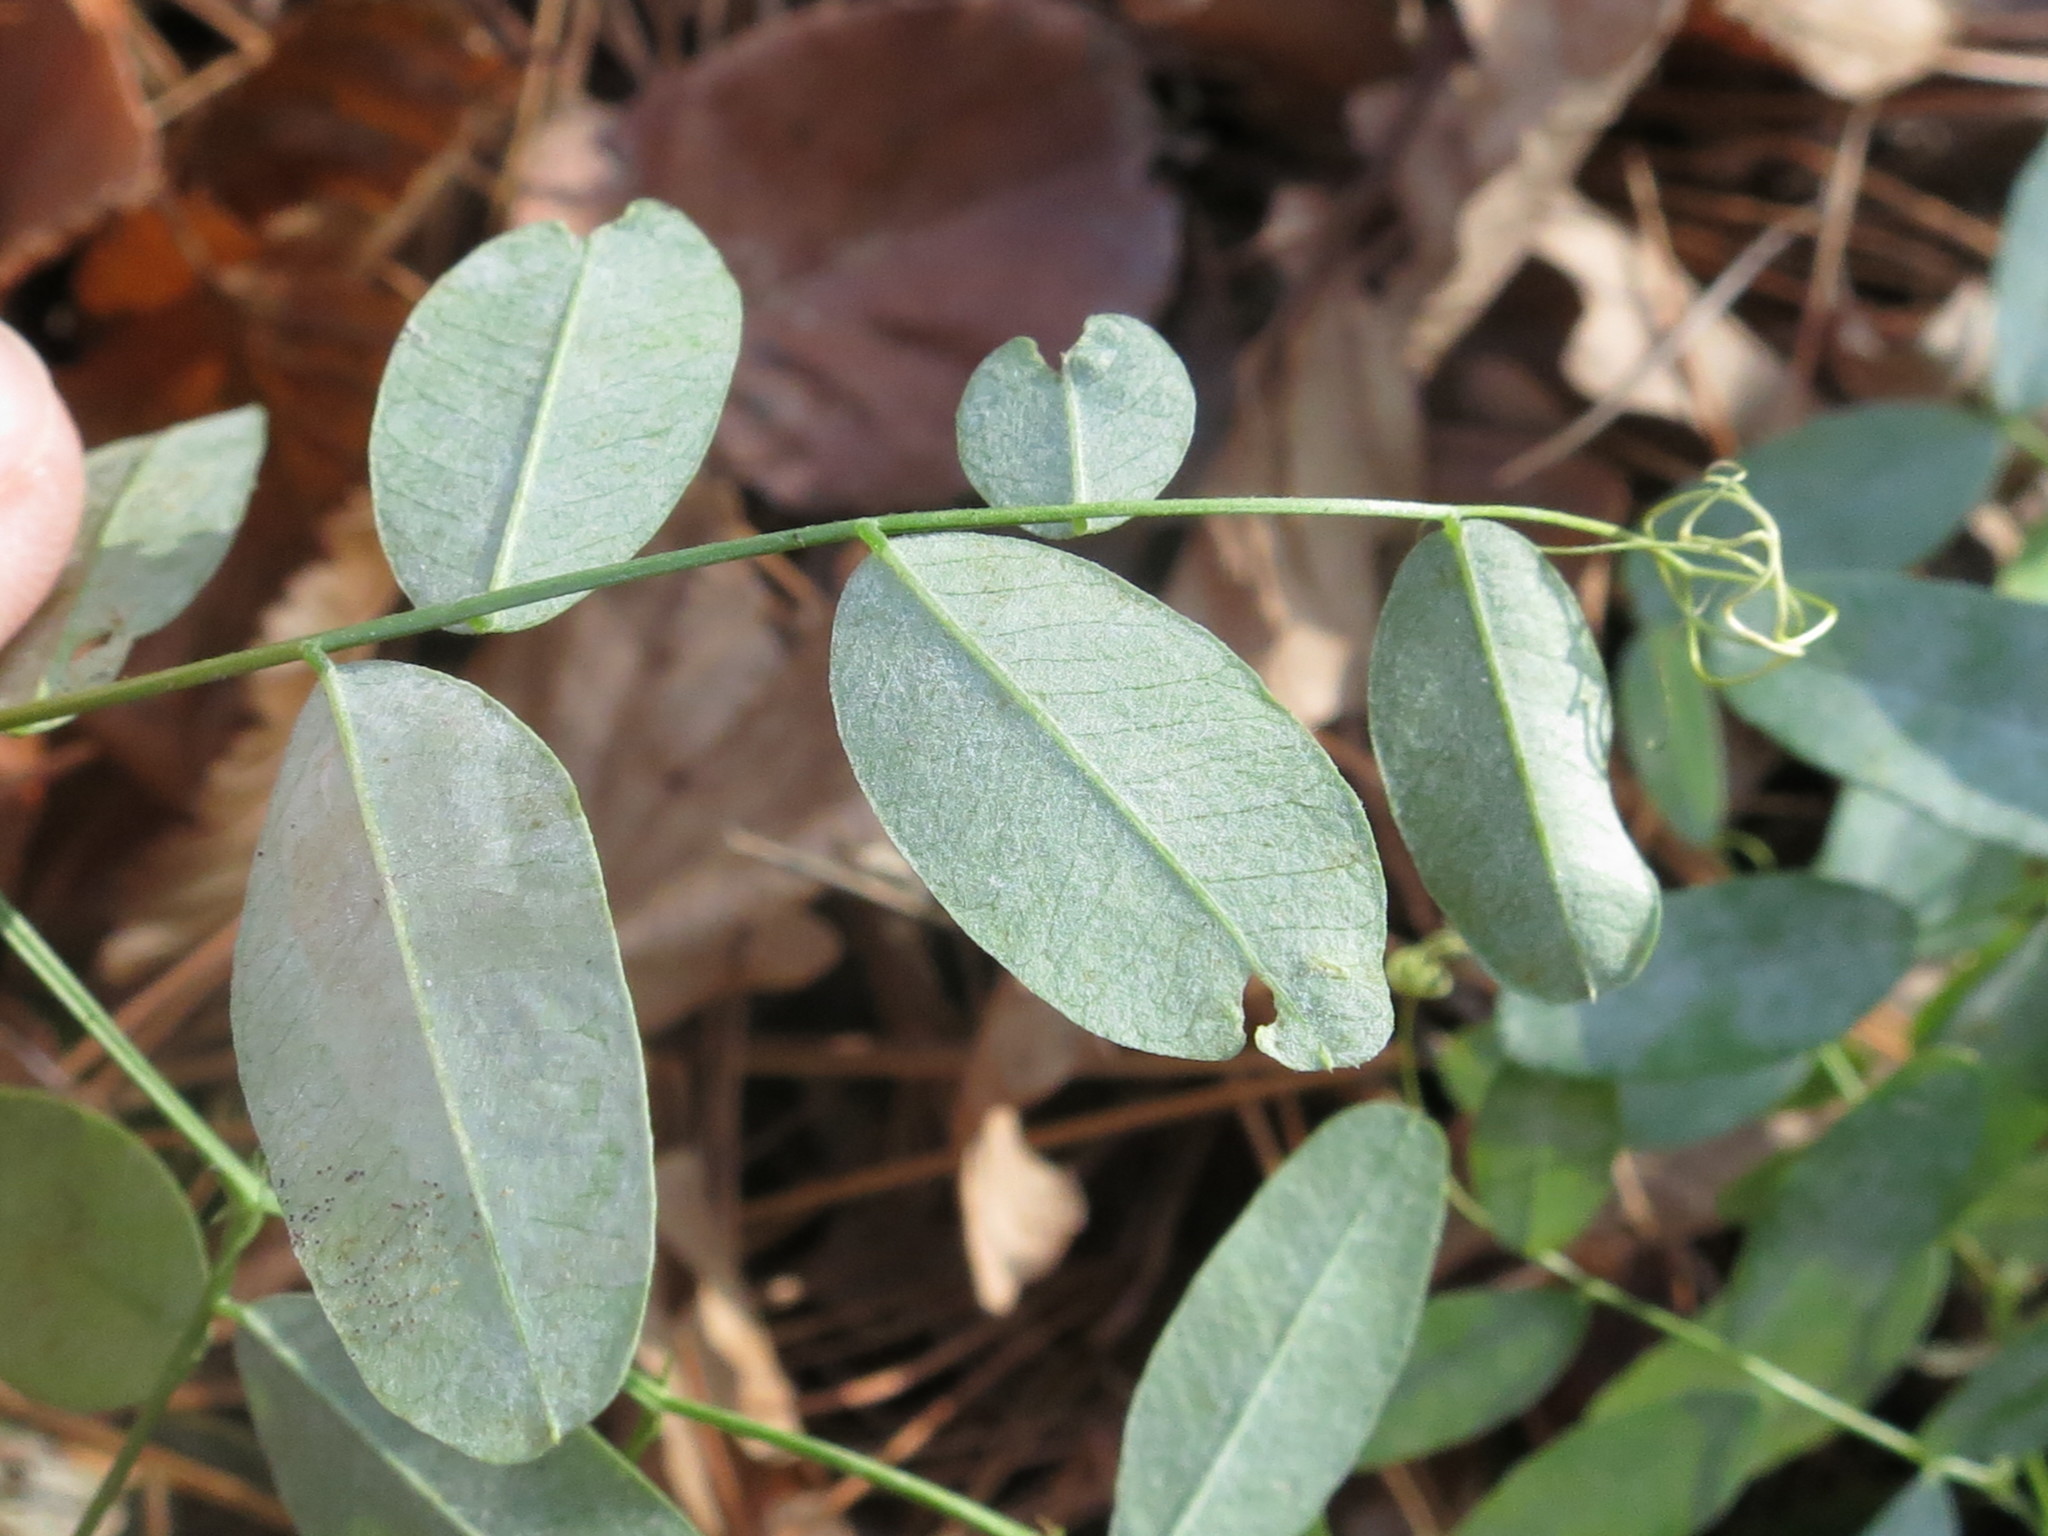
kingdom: Plantae
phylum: Tracheophyta
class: Magnoliopsida
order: Fabales
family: Fabaceae
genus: Vicia
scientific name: Vicia amurensis
